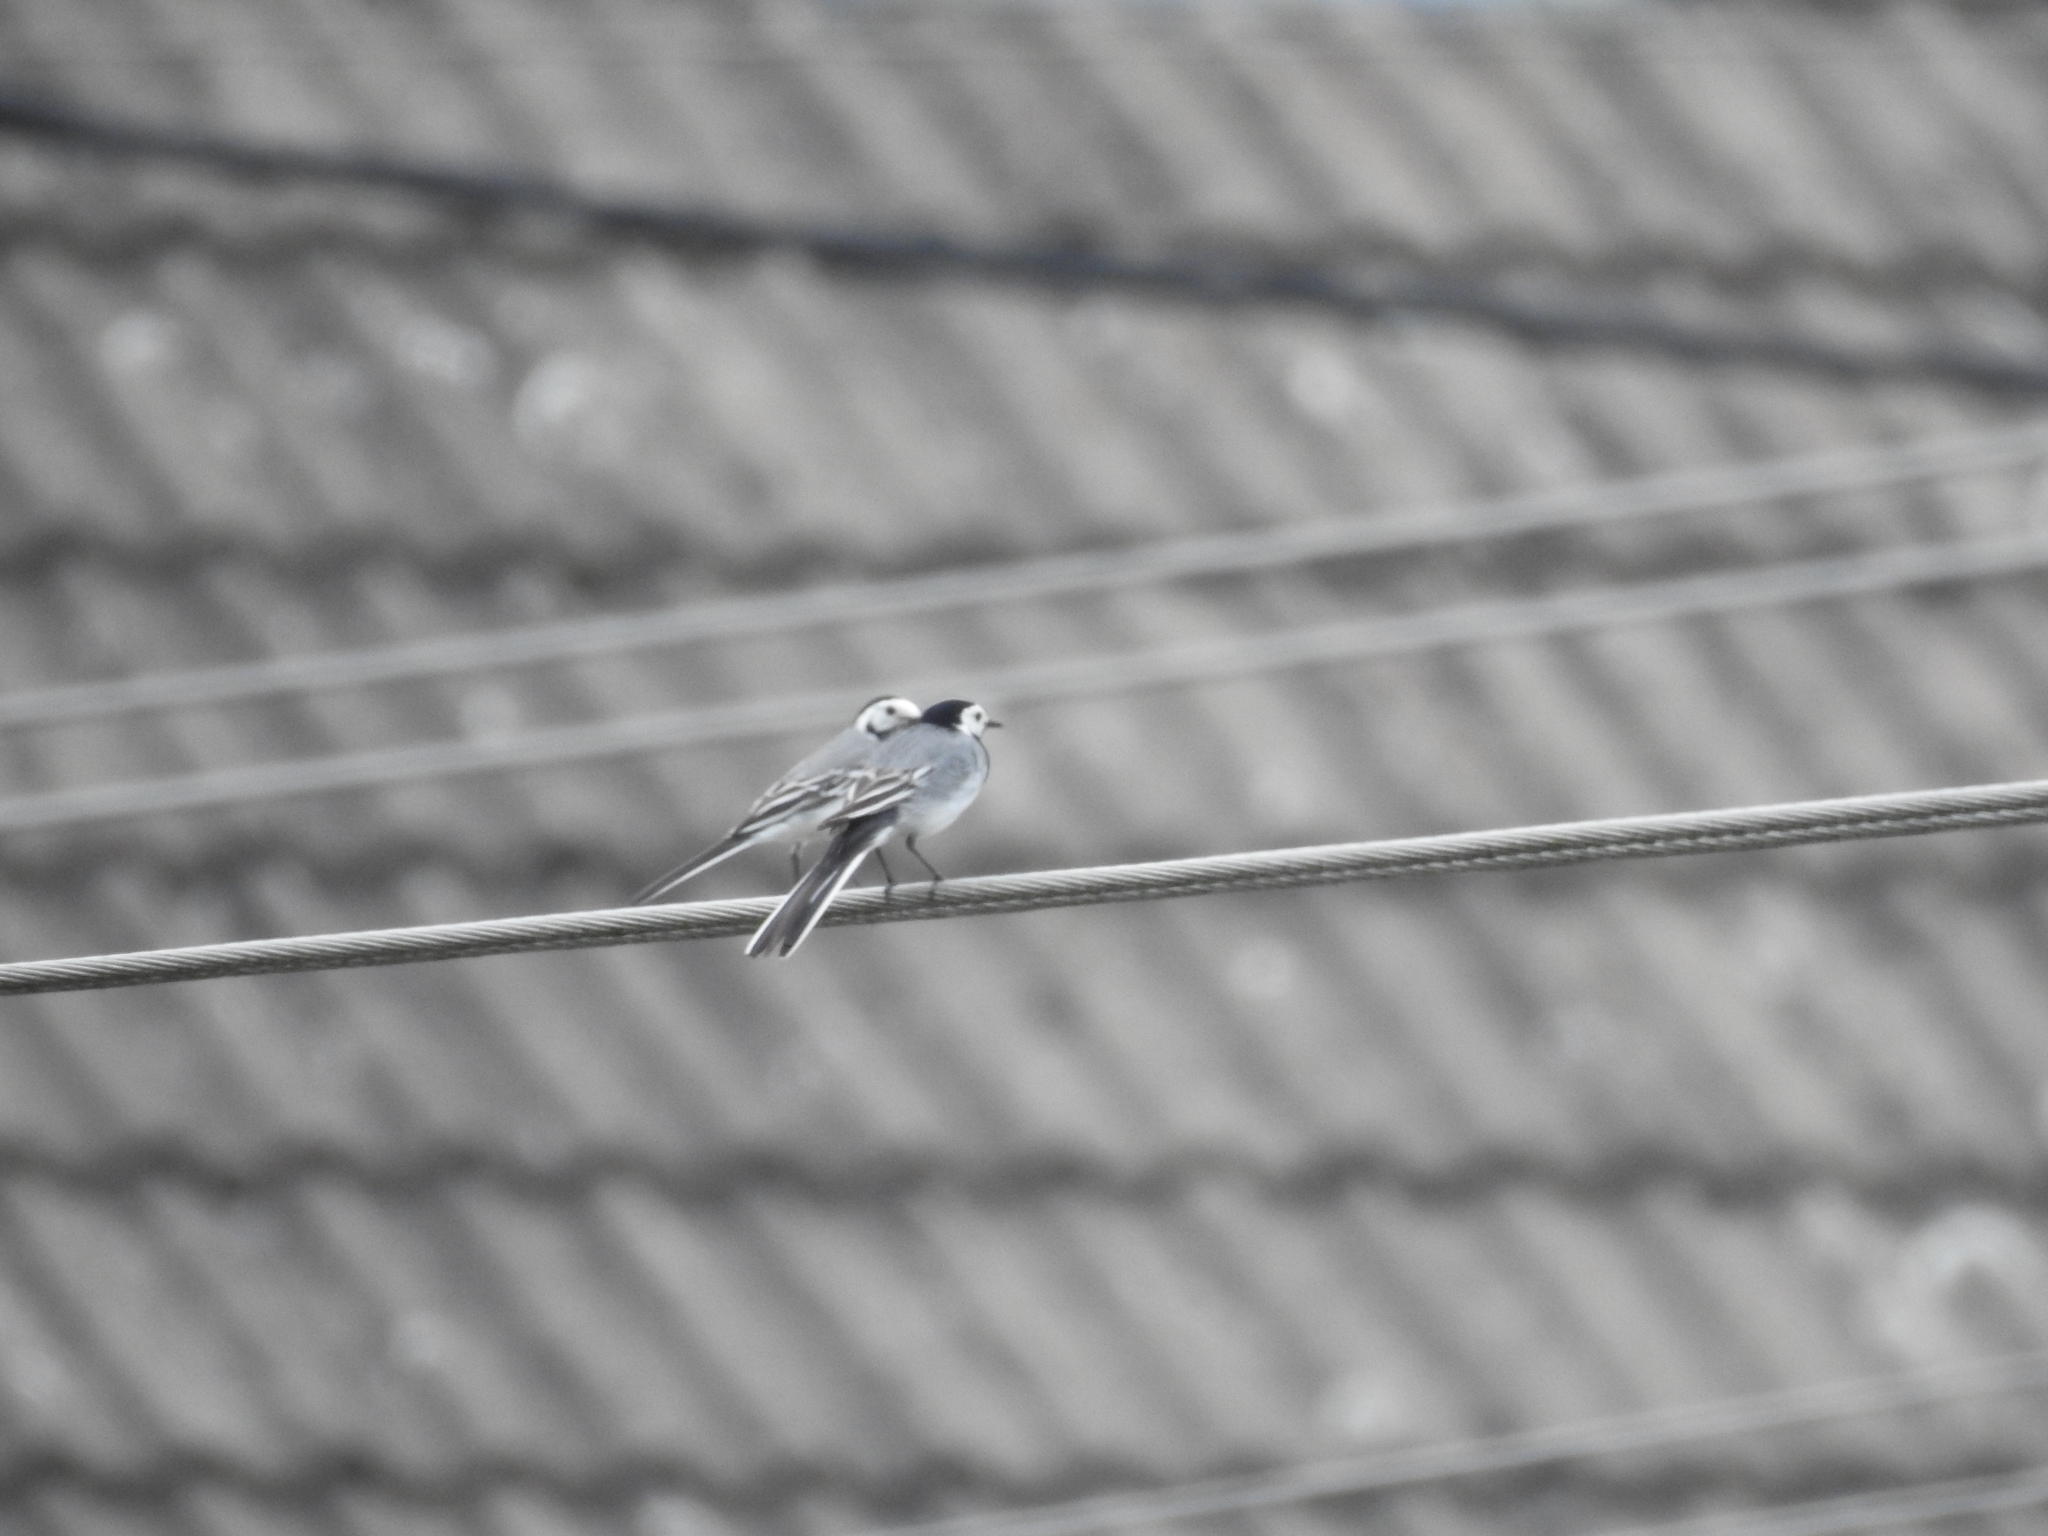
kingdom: Animalia
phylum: Chordata
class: Aves
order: Passeriformes
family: Motacillidae
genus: Motacilla
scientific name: Motacilla alba
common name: White wagtail
